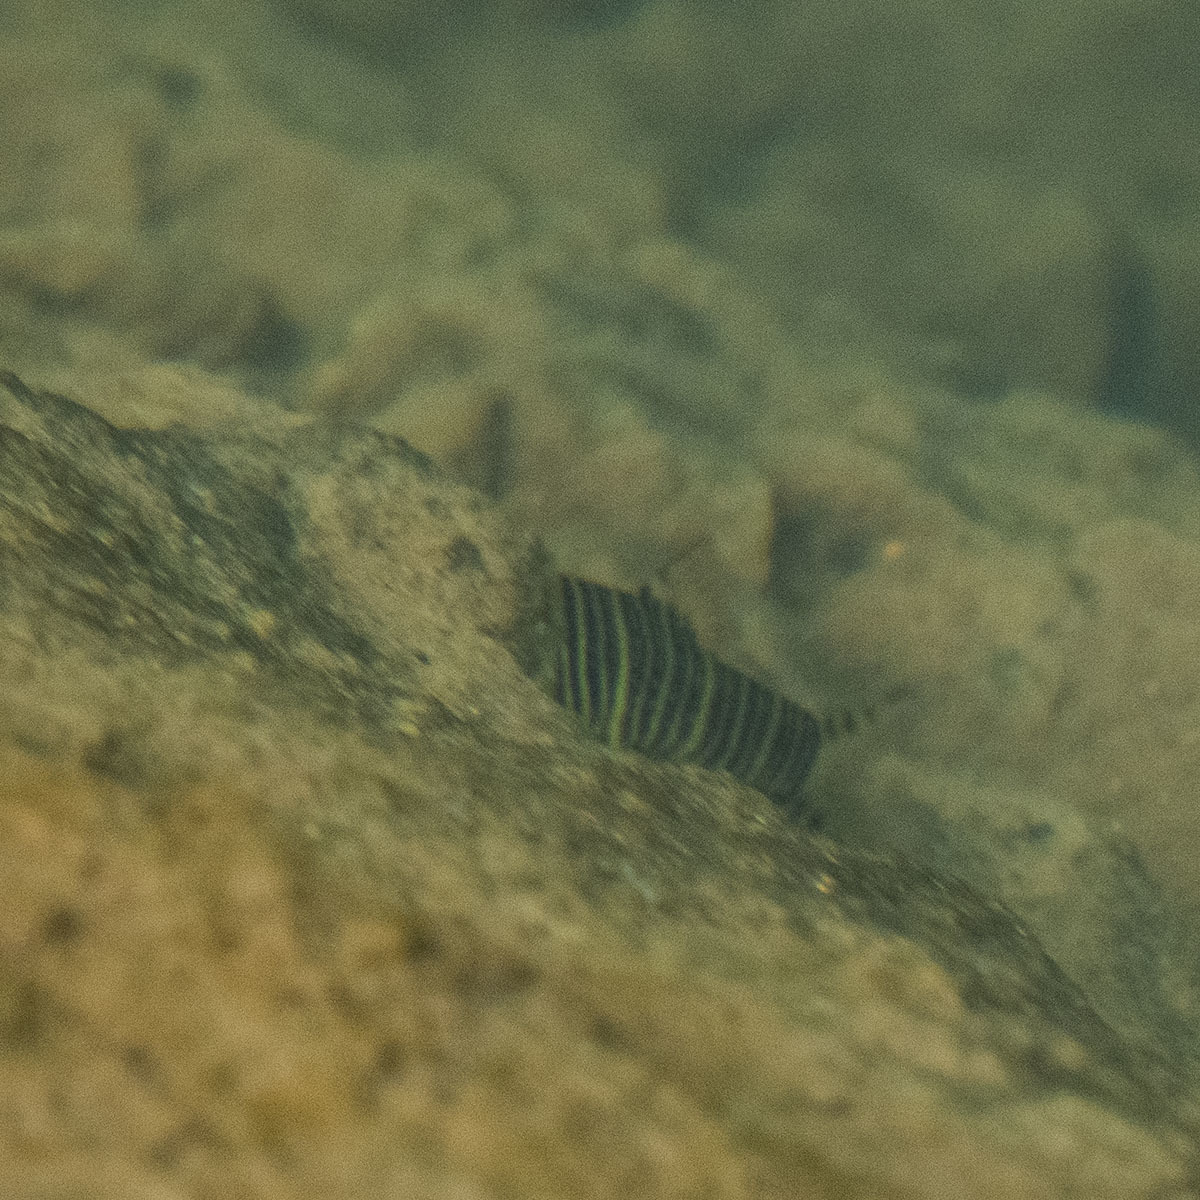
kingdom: Animalia
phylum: Chordata
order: Cypriniformes
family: Cobitidae
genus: Botia
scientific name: Botia striata
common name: Zebra loach
